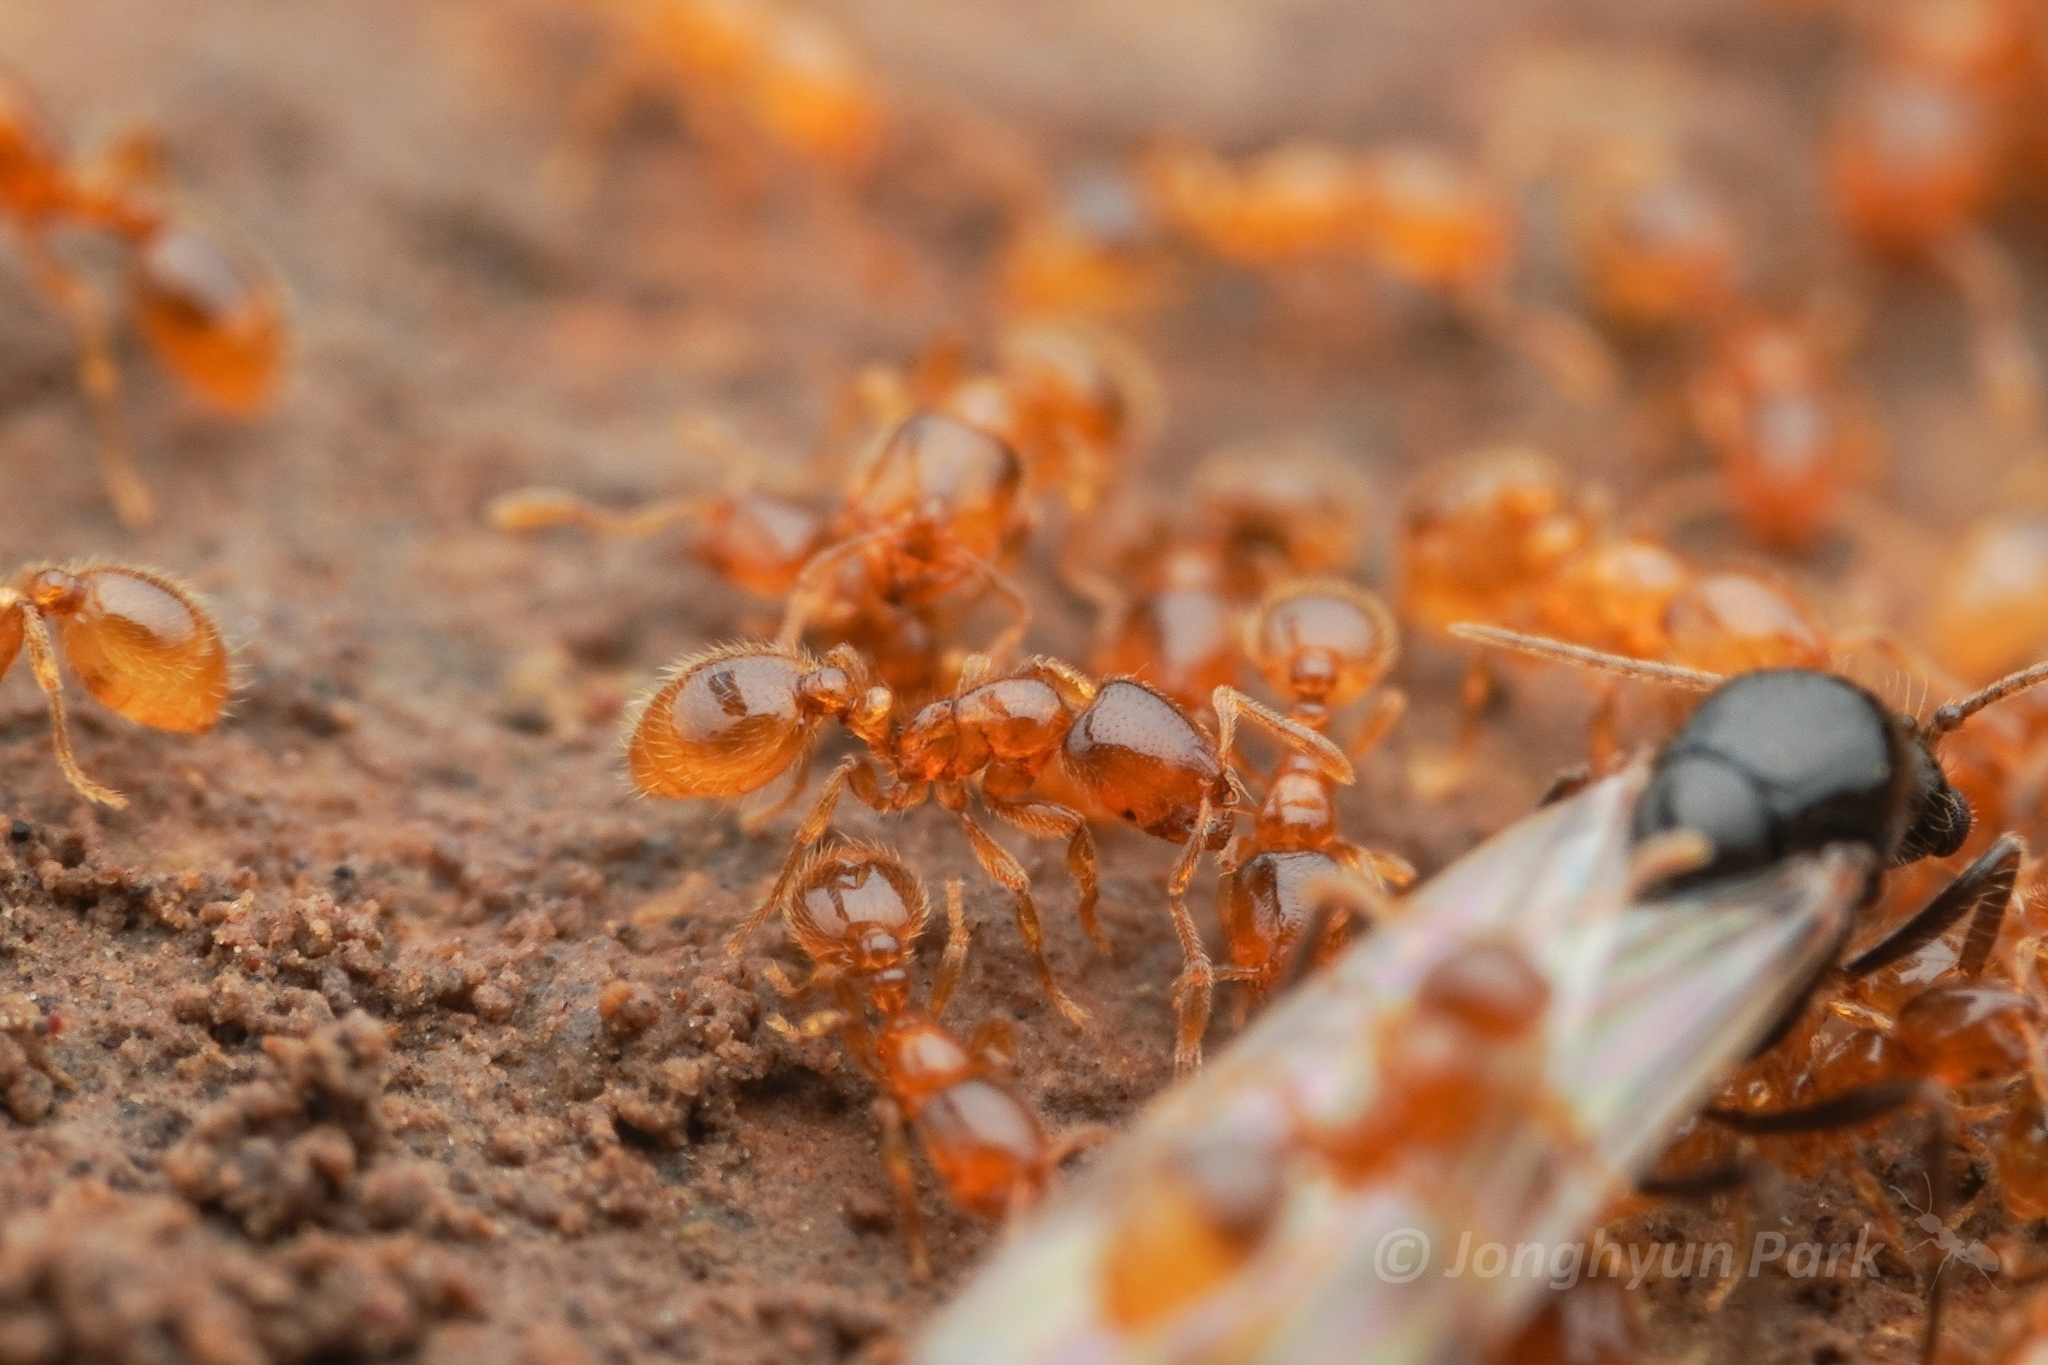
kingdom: Animalia
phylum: Arthropoda
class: Insecta
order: Hymenoptera
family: Formicidae
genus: Solenopsis
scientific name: Solenopsis japonica
